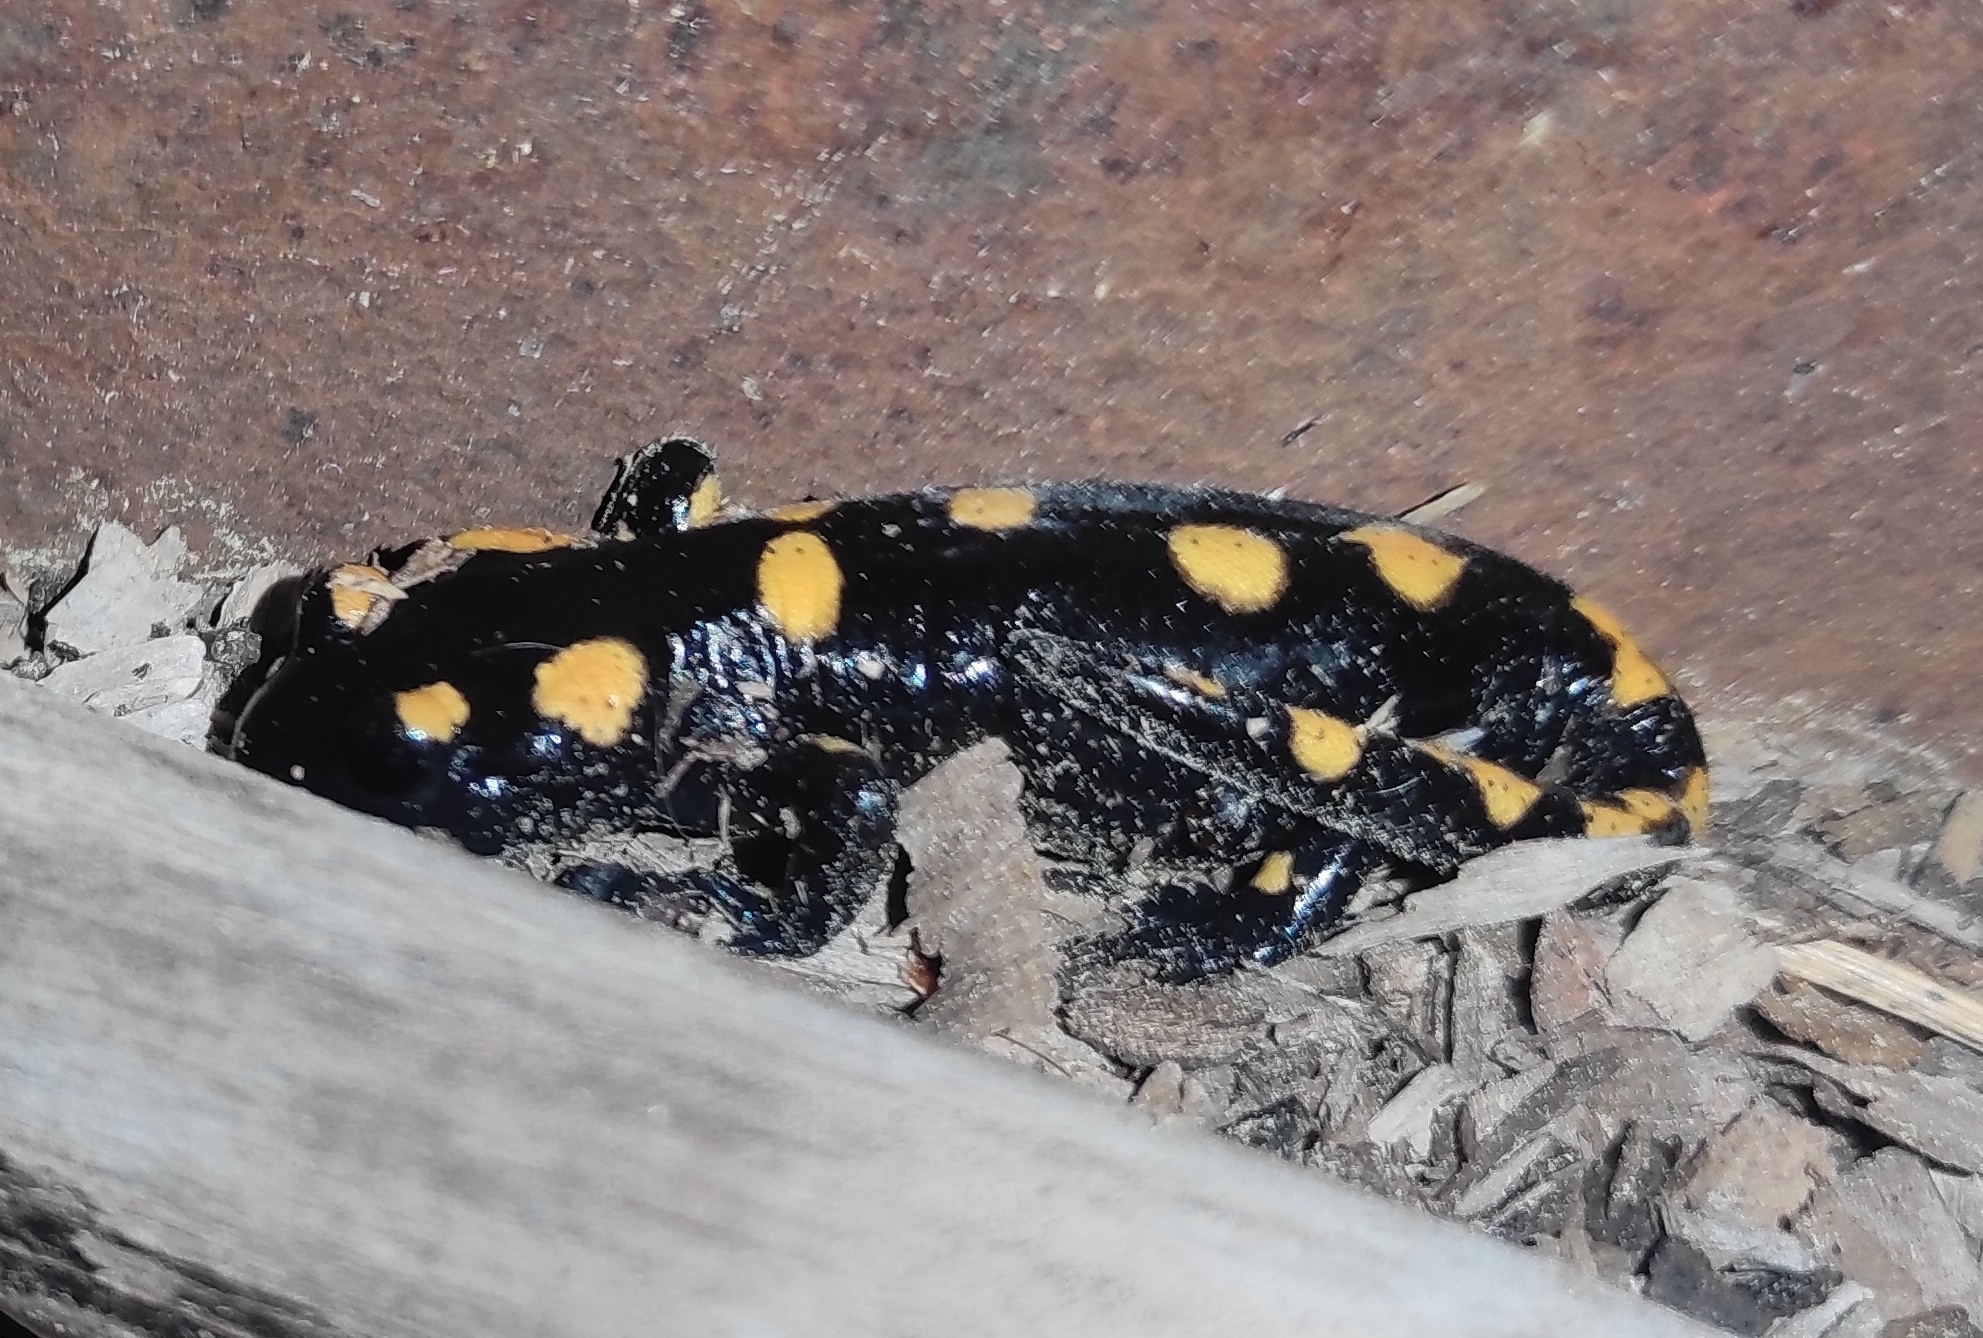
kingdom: Animalia
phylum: Chordata
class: Amphibia
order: Caudata
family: Salamandridae
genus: Salamandra
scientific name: Salamandra salamandra
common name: Fire salamander
